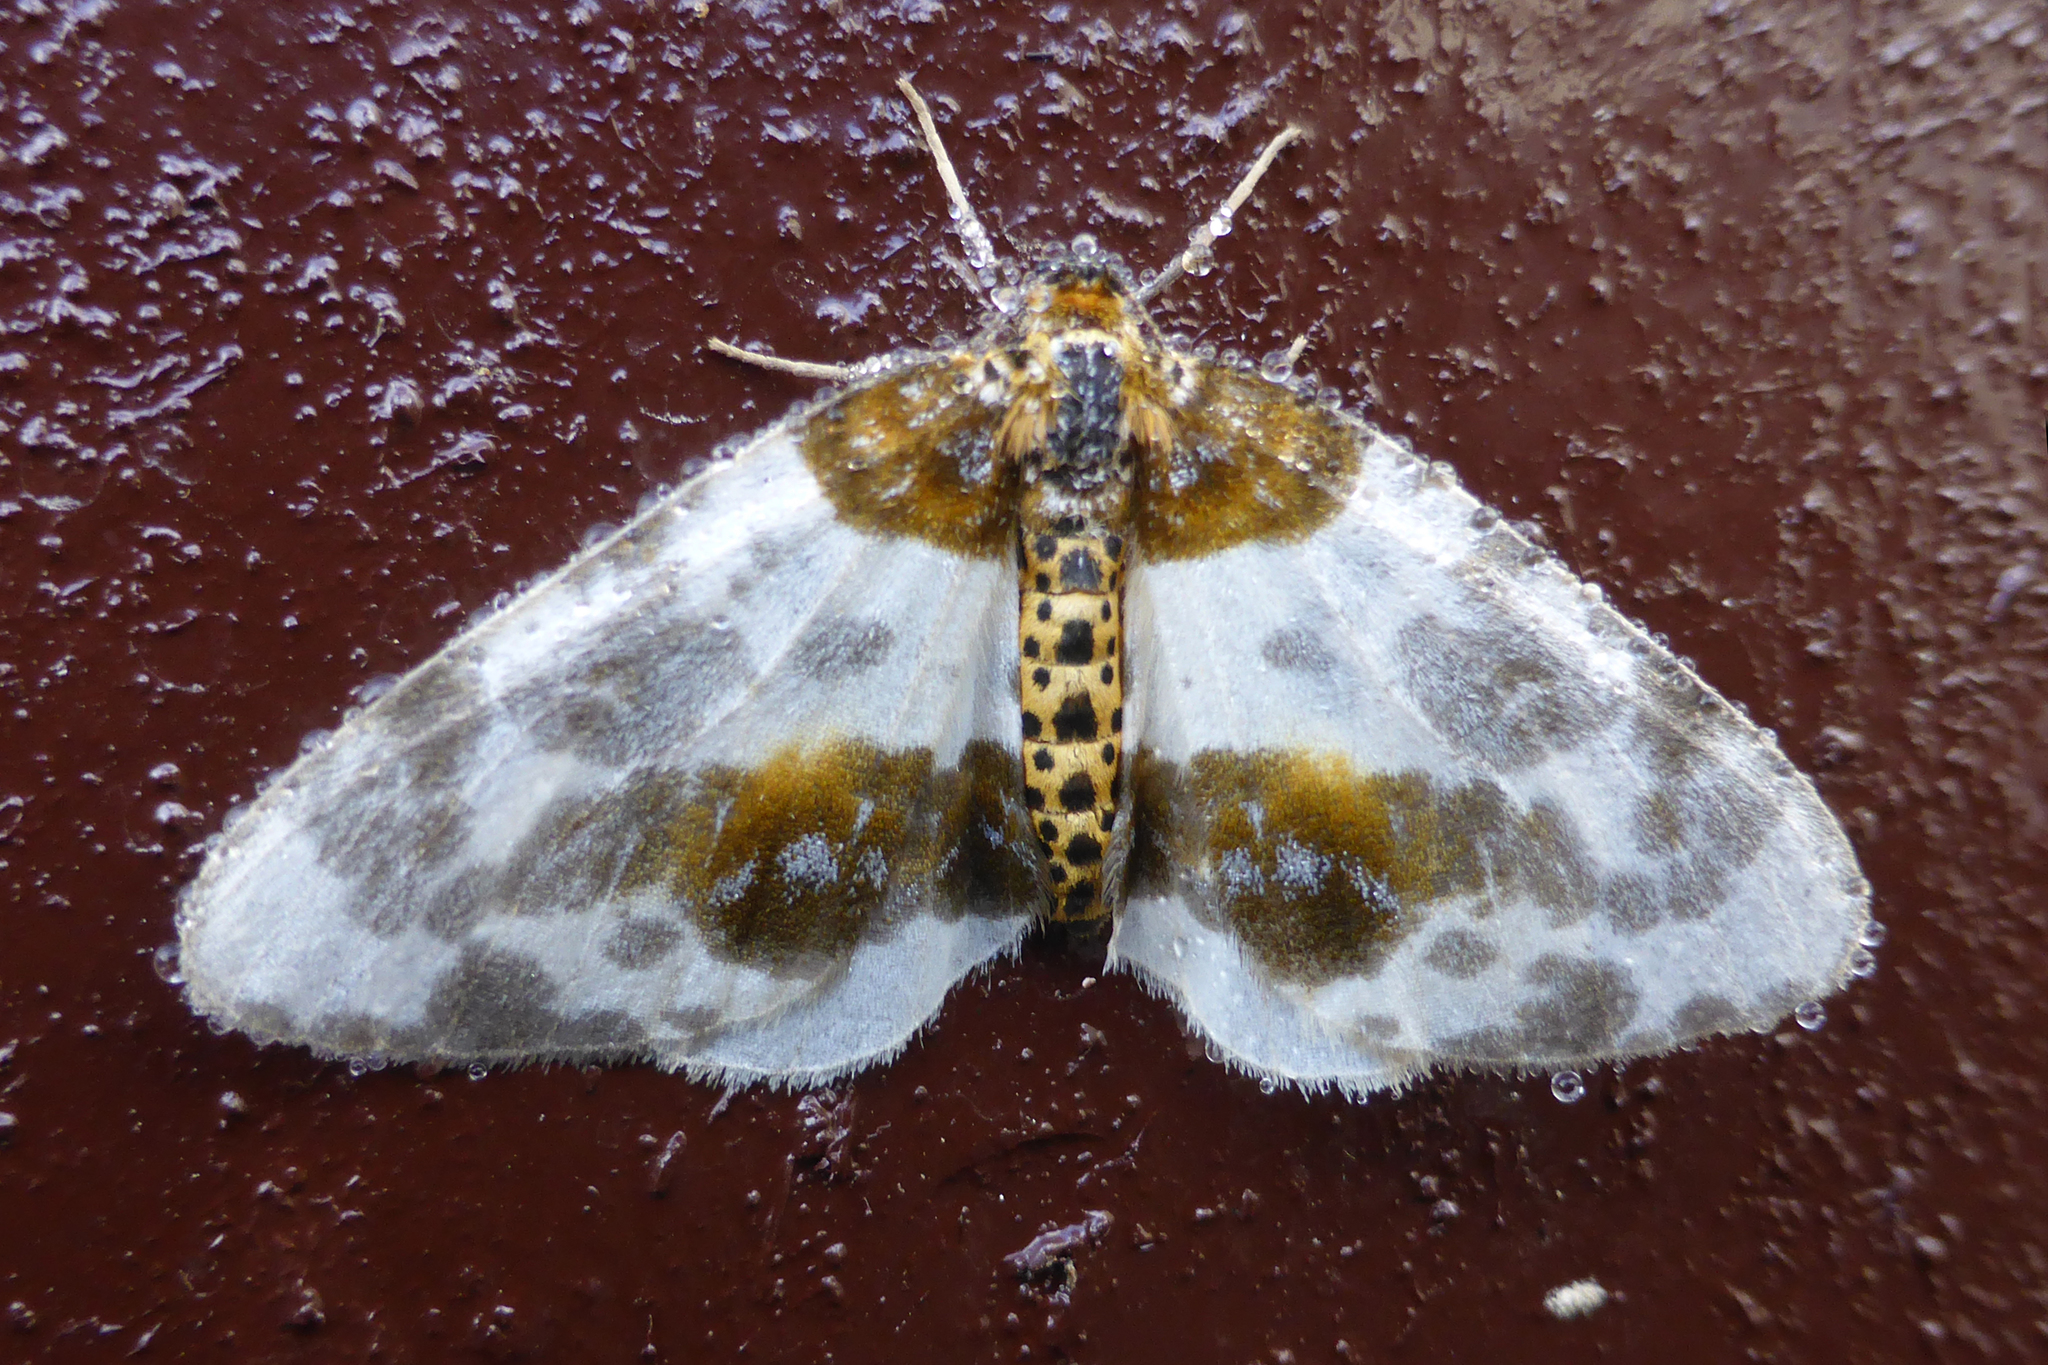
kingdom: Animalia
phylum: Arthropoda
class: Insecta
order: Lepidoptera
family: Geometridae
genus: Abraxas
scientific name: Abraxas sylvata
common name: Clouded magpie
